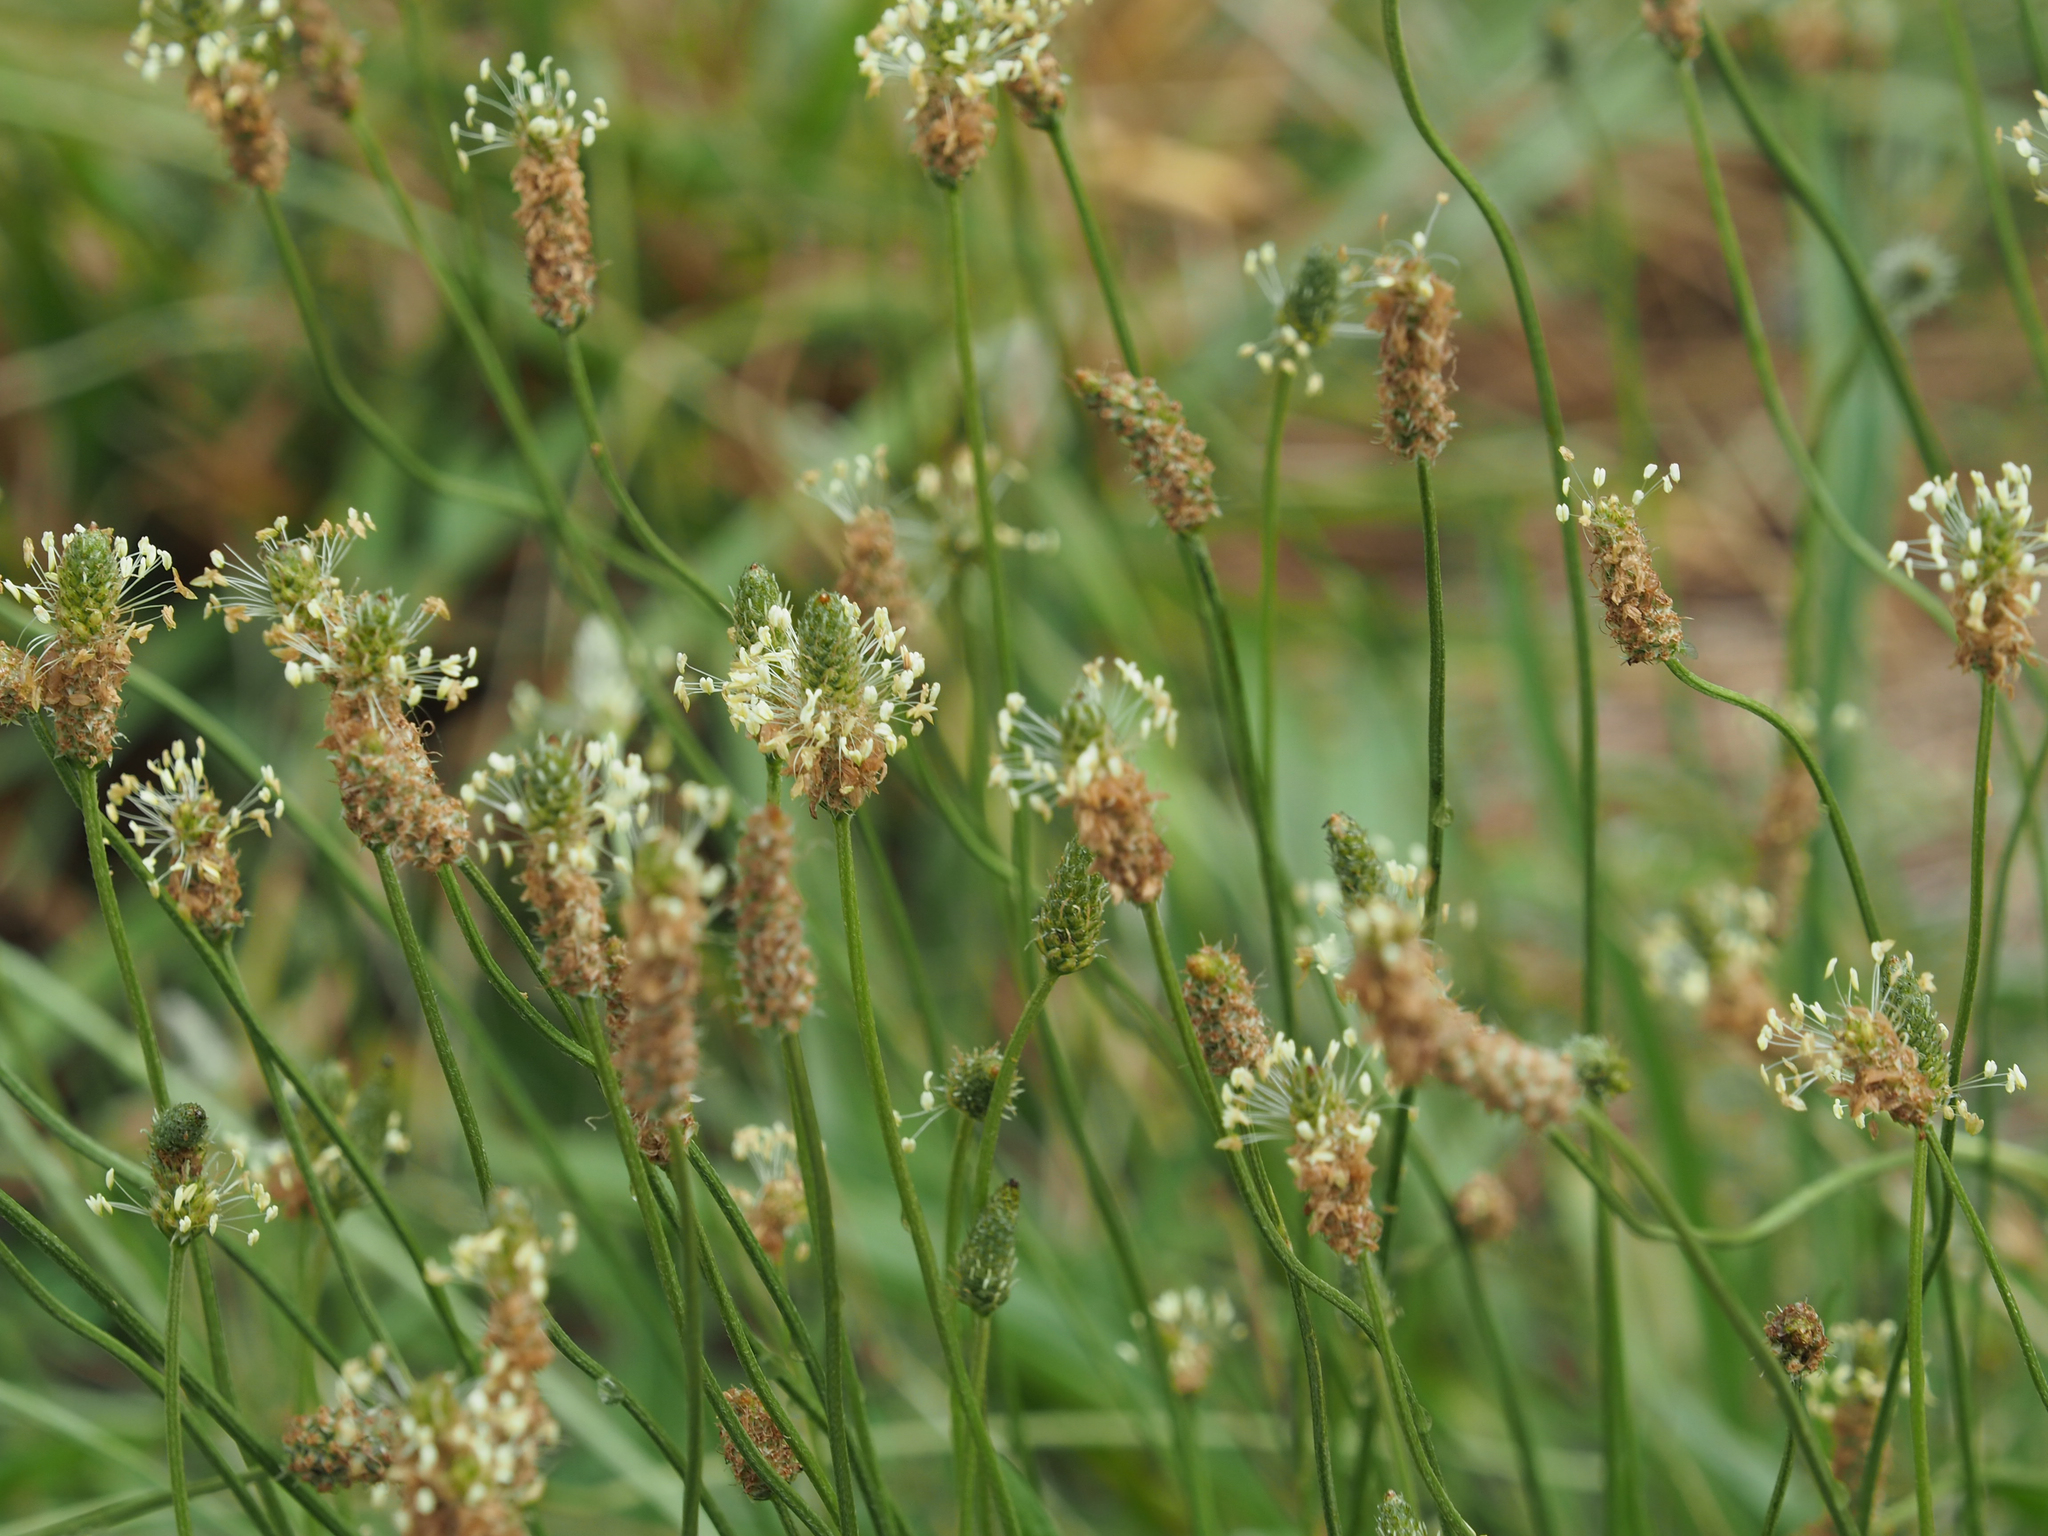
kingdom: Plantae
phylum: Tracheophyta
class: Magnoliopsida
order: Lamiales
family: Plantaginaceae
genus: Plantago
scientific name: Plantago lanceolata
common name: Ribwort plantain
